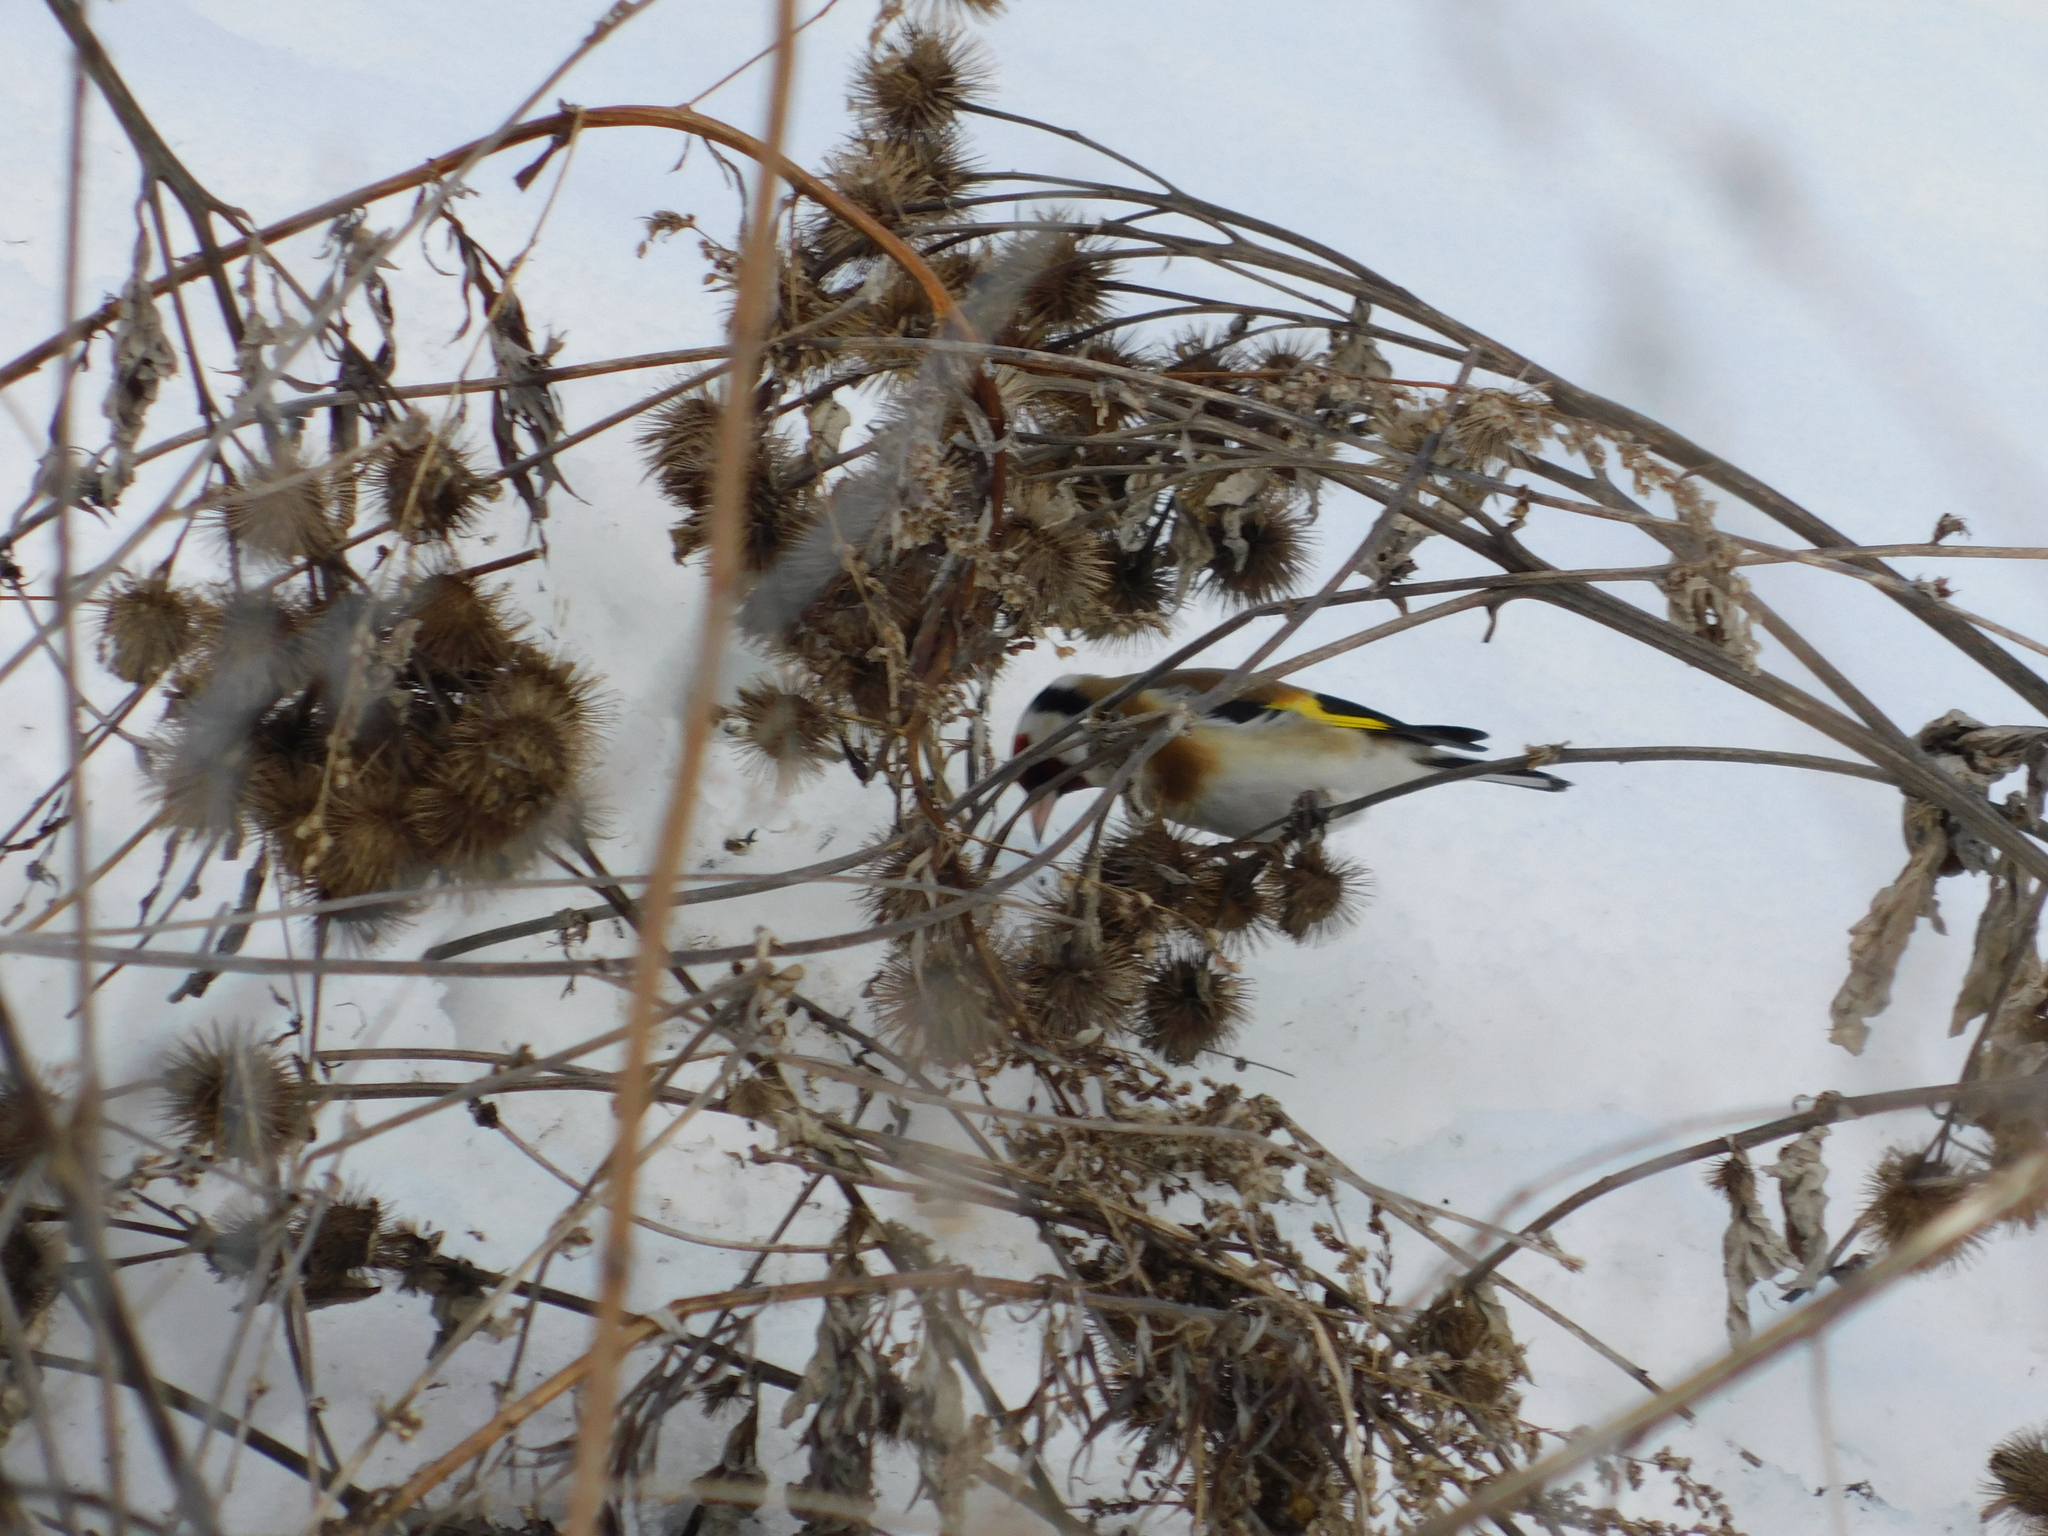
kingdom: Animalia
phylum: Chordata
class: Aves
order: Passeriformes
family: Fringillidae
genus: Carduelis
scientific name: Carduelis carduelis
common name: European goldfinch
